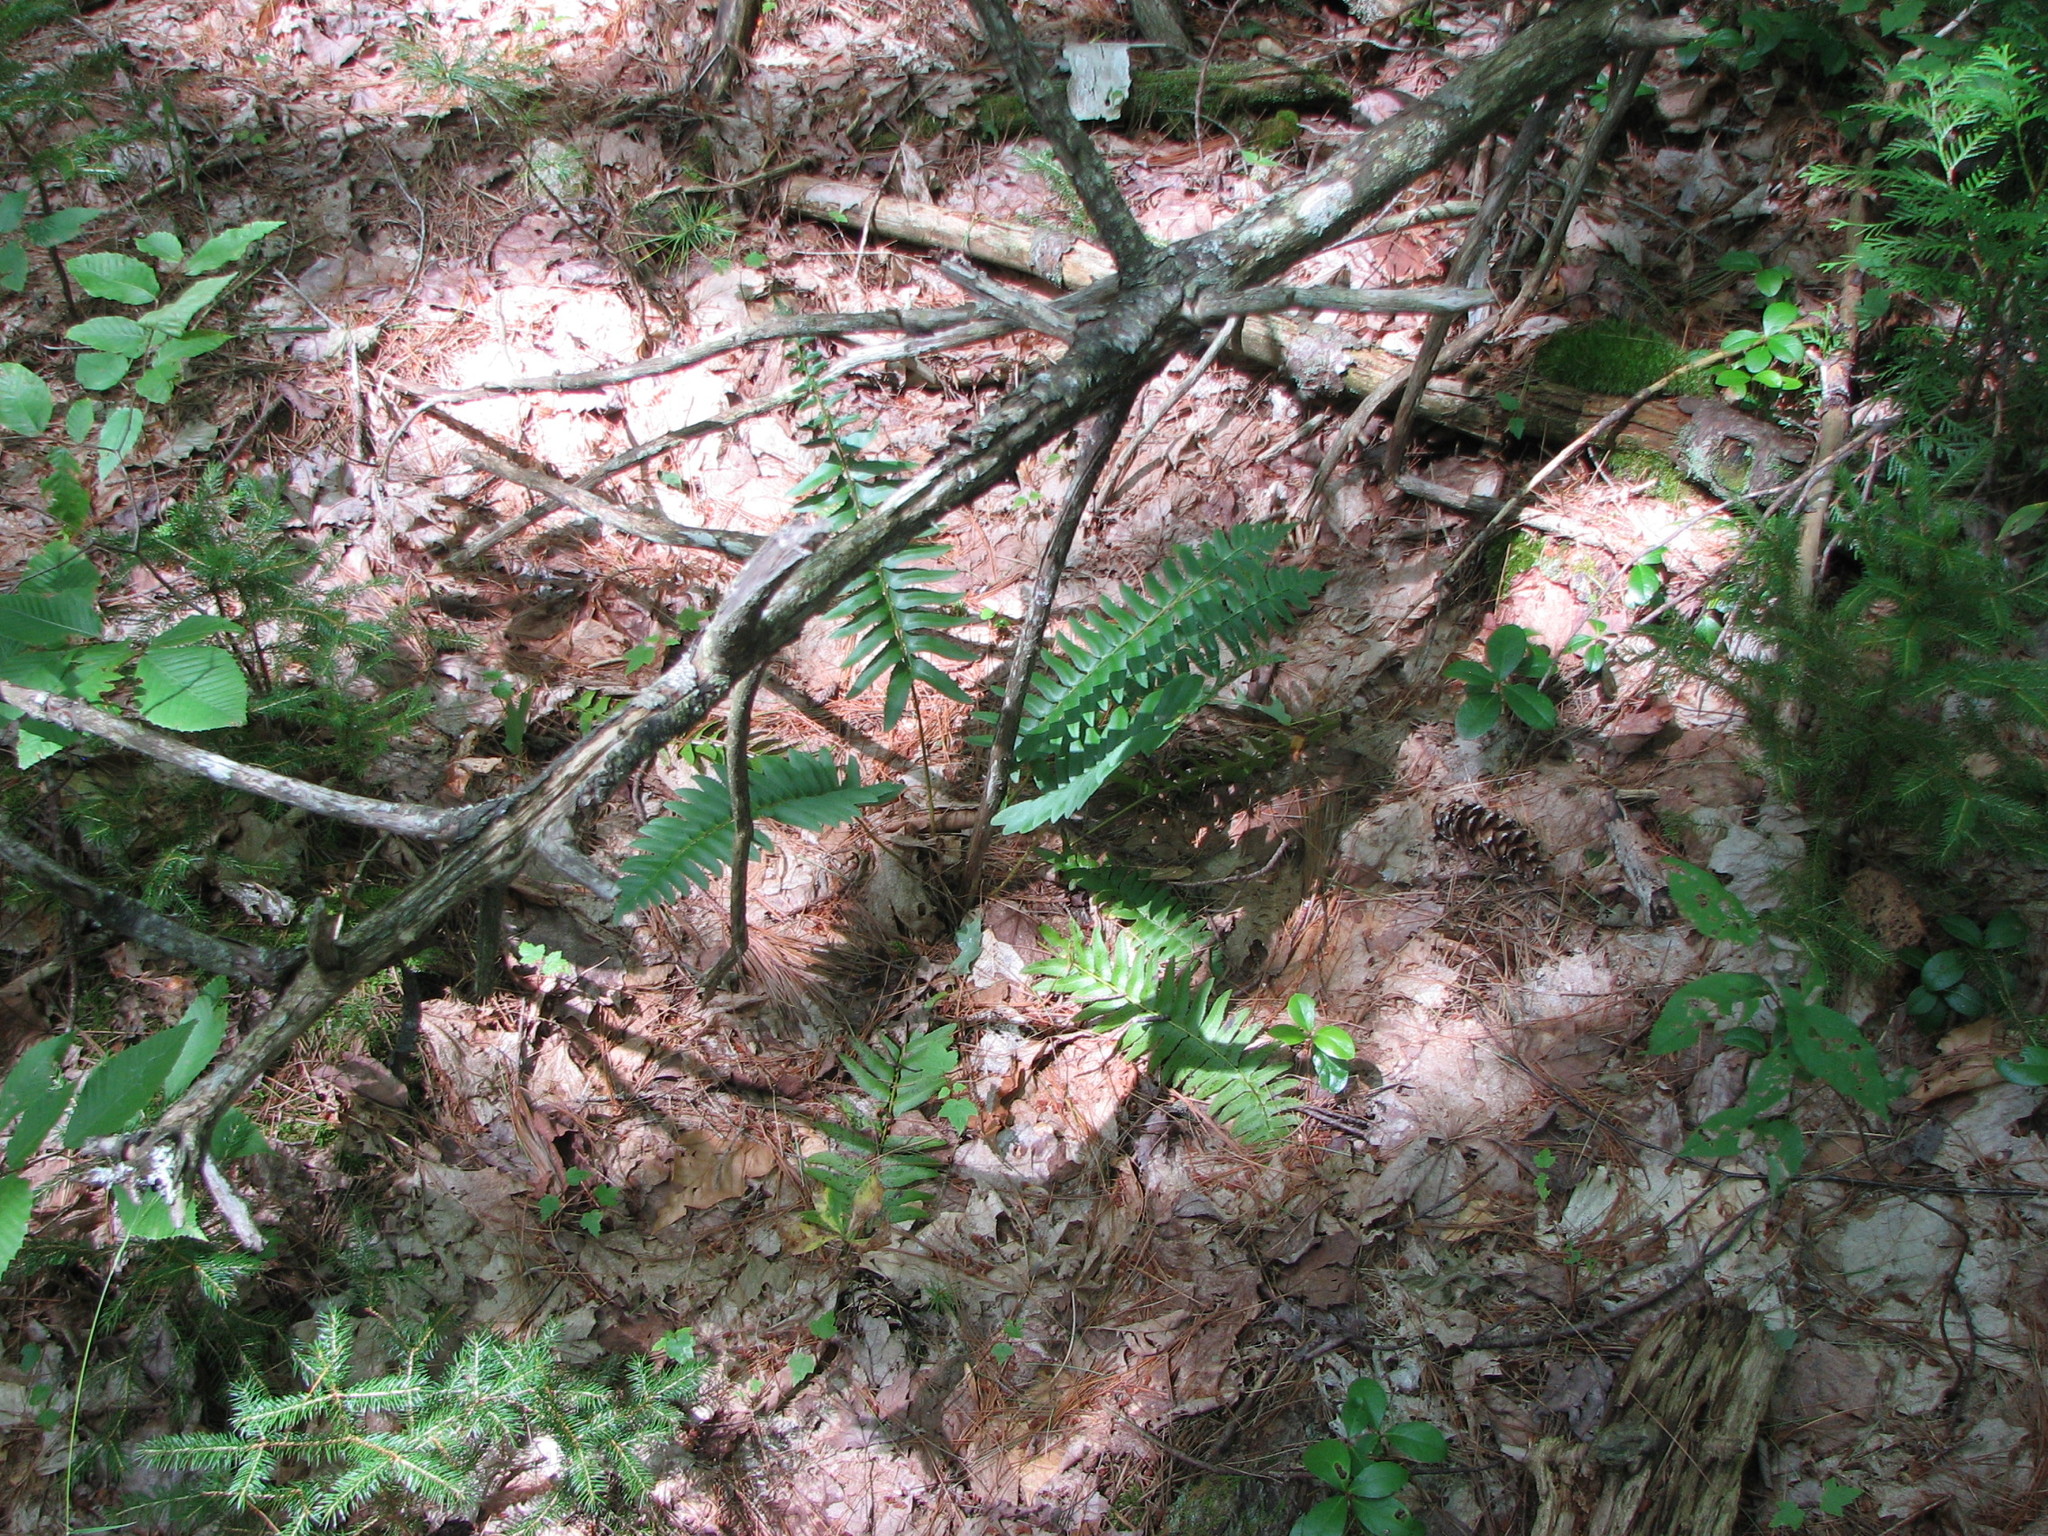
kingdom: Plantae
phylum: Tracheophyta
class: Polypodiopsida
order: Polypodiales
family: Dryopteridaceae
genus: Polystichum
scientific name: Polystichum acrostichoides
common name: Christmas fern
